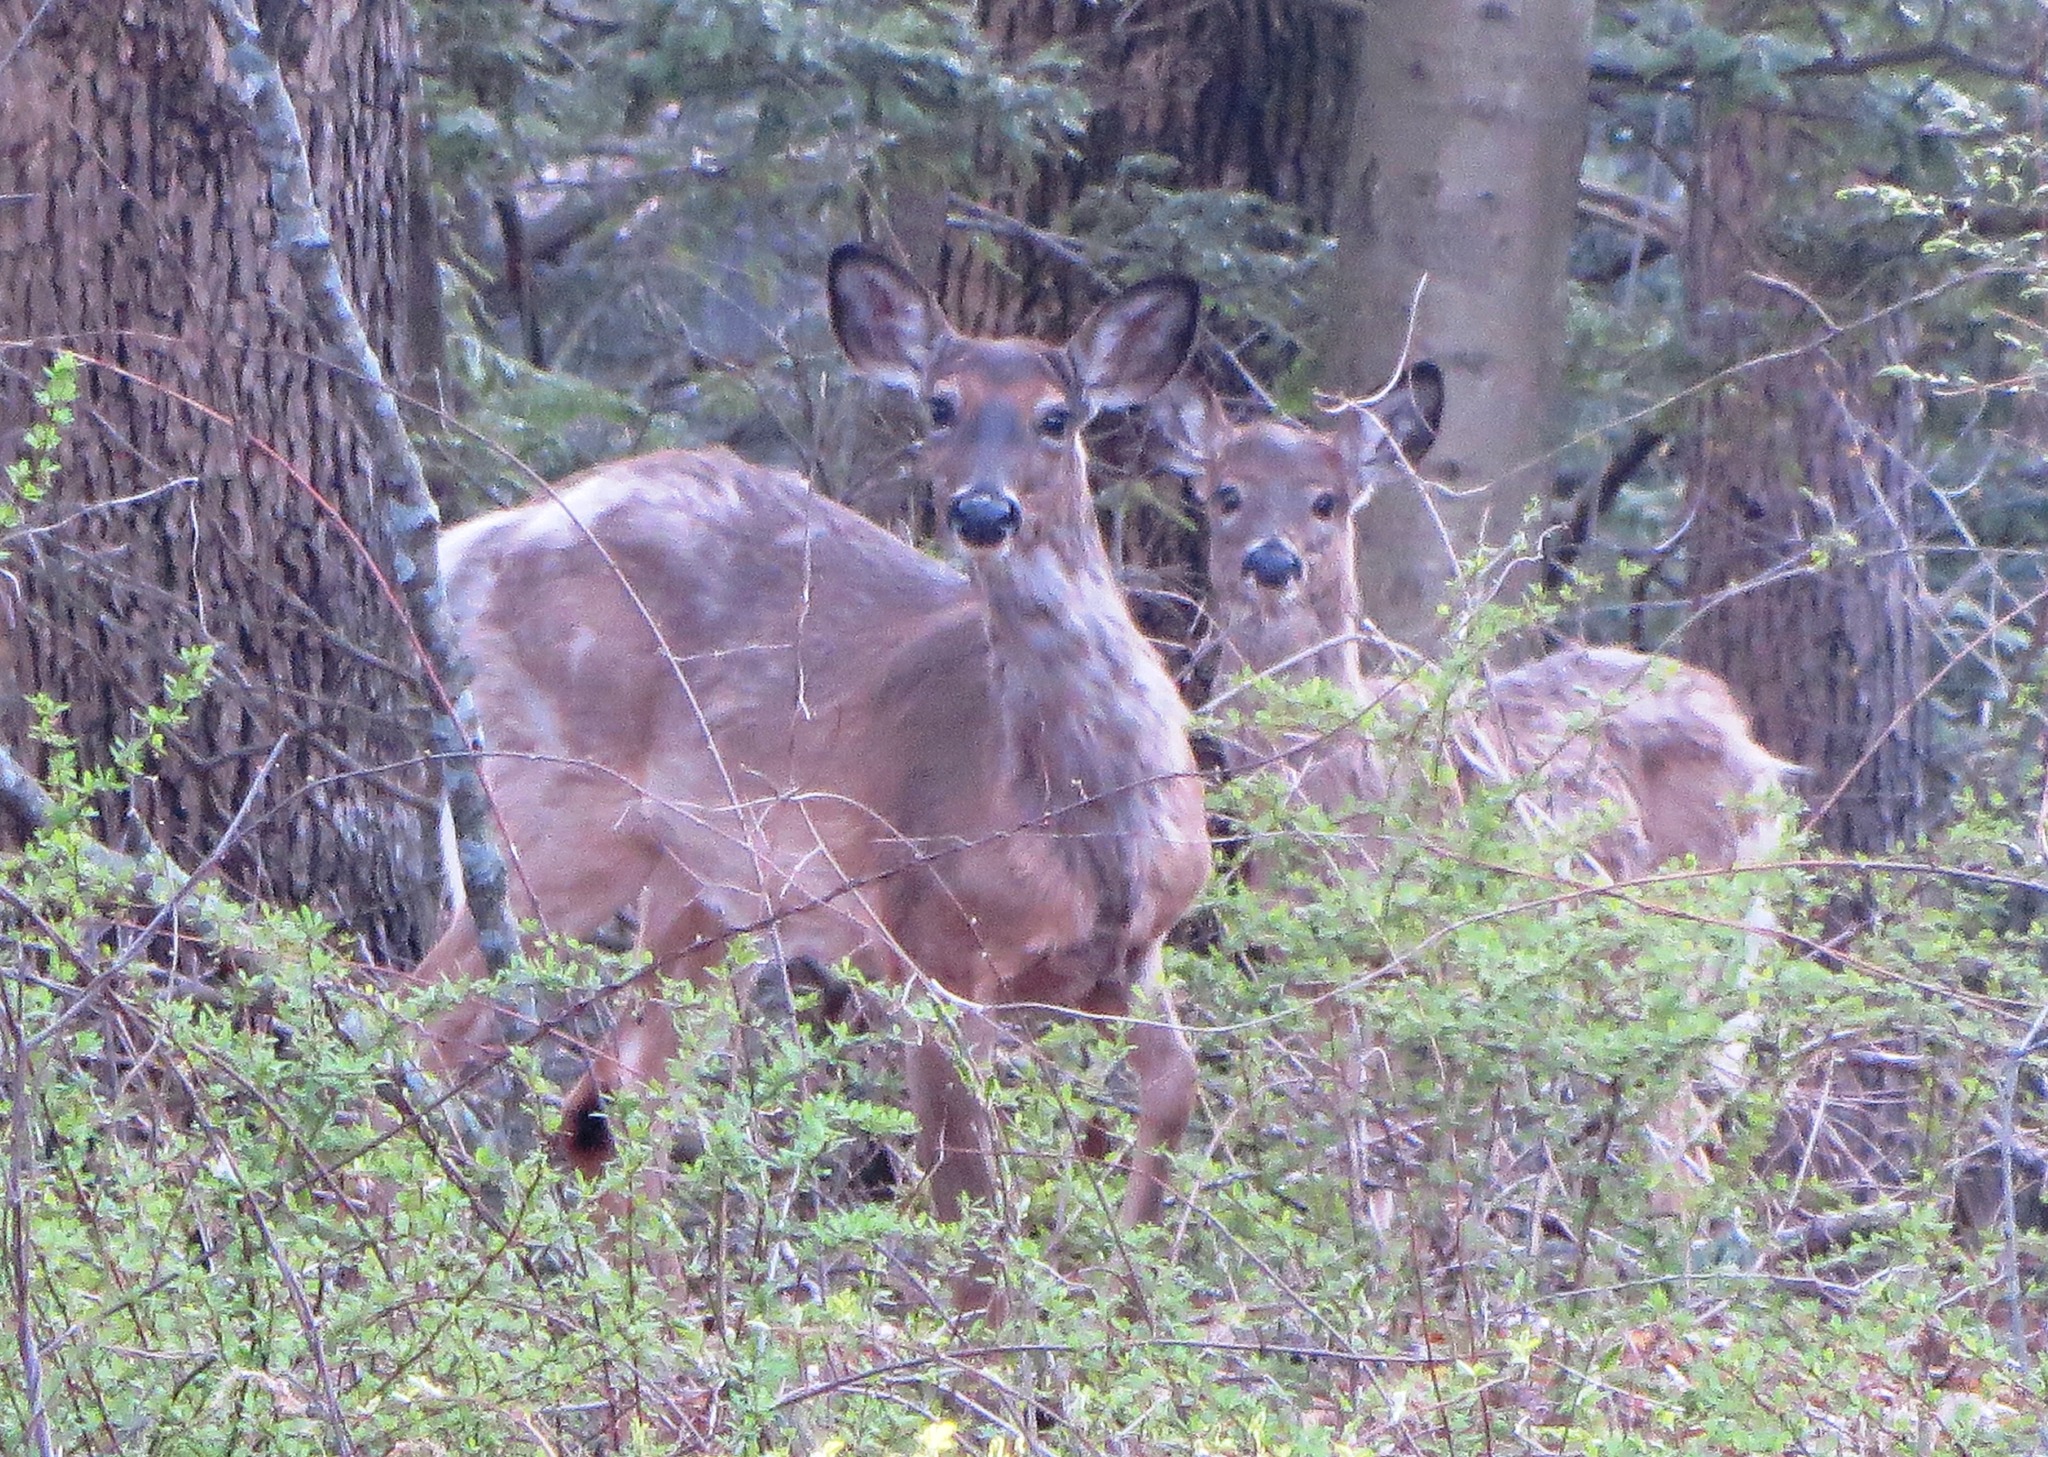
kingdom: Animalia
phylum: Chordata
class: Mammalia
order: Artiodactyla
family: Cervidae
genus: Odocoileus
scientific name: Odocoileus virginianus
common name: White-tailed deer
